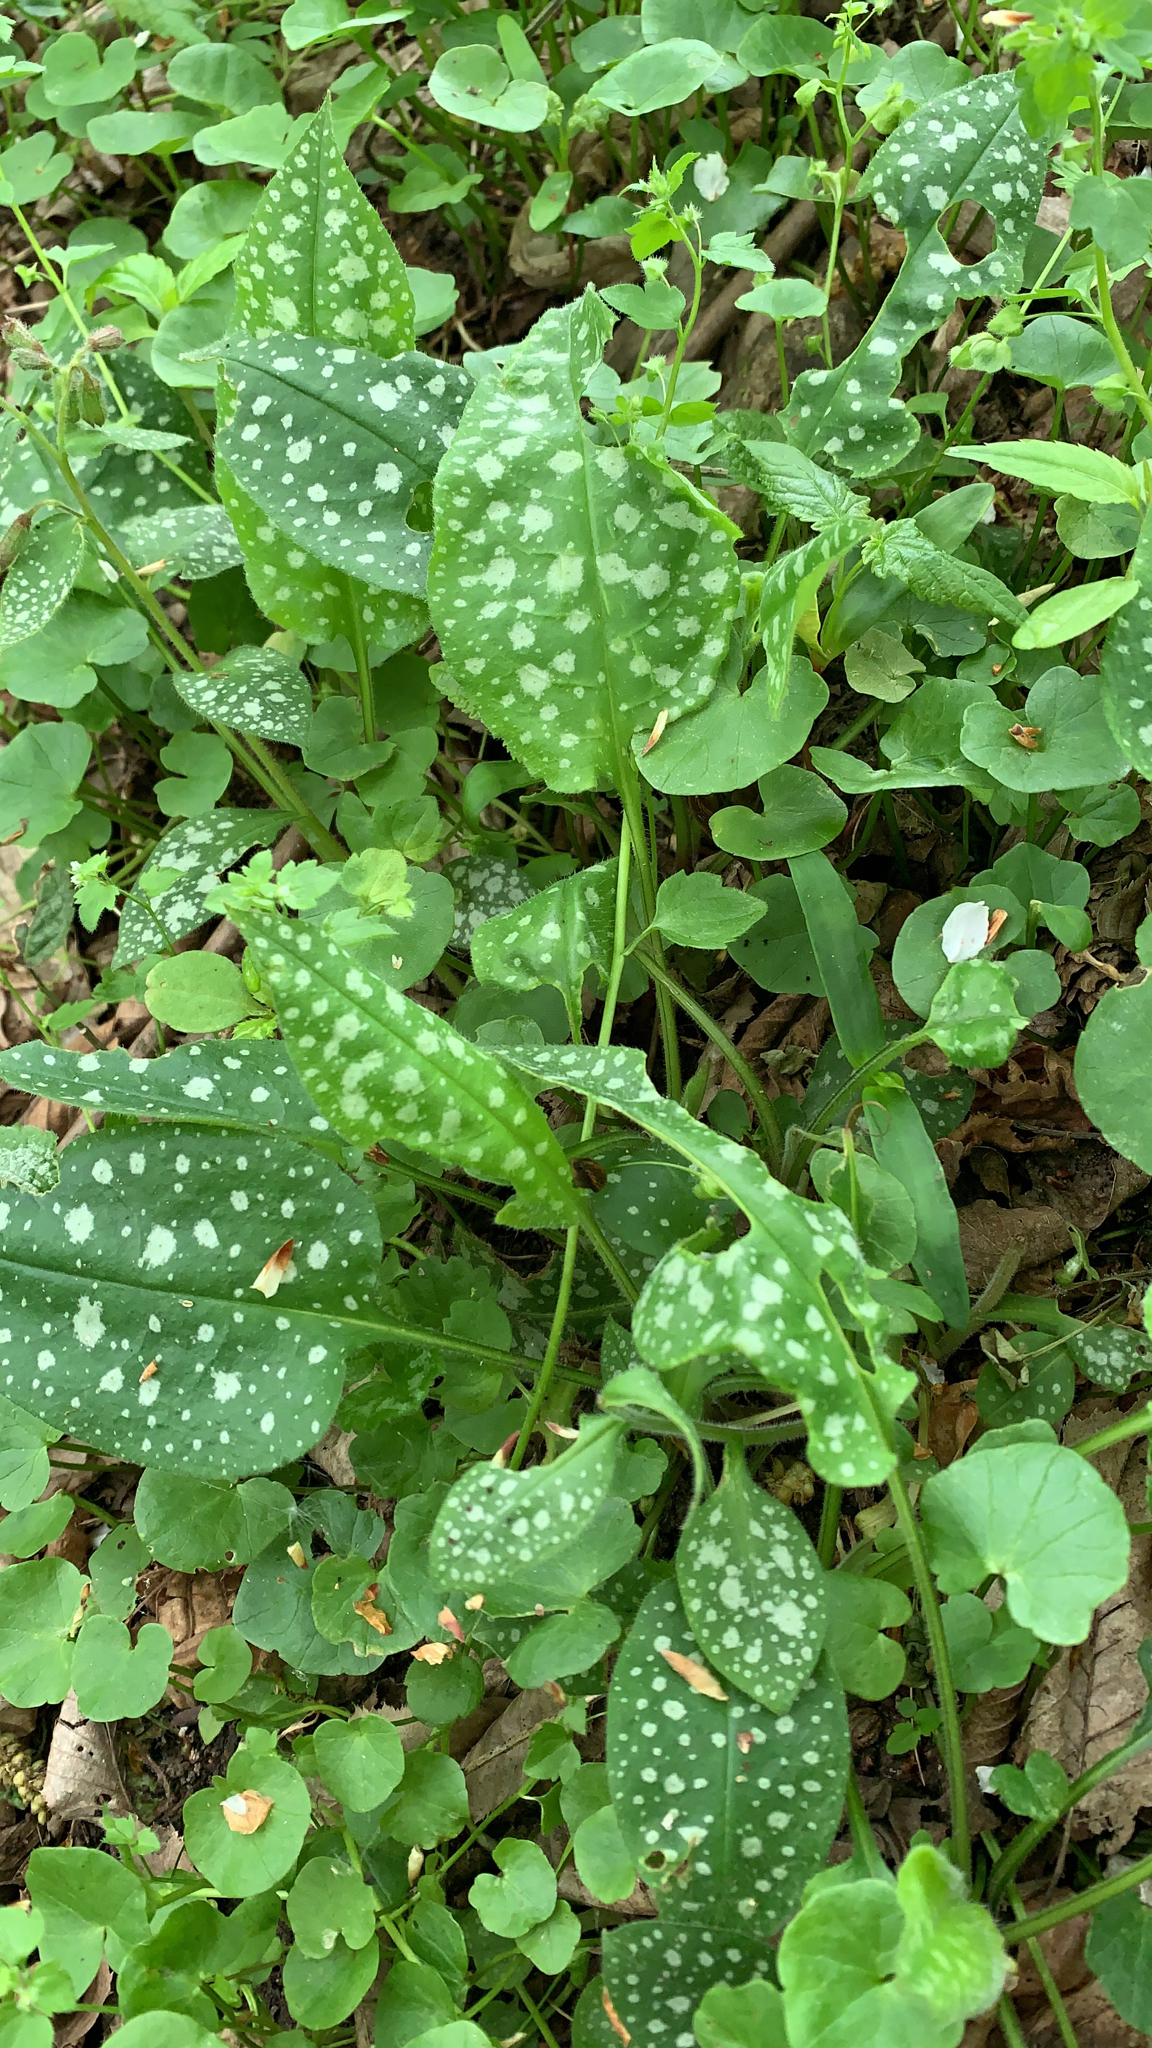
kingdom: Plantae
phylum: Tracheophyta
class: Magnoliopsida
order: Boraginales
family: Boraginaceae
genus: Pulmonaria
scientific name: Pulmonaria officinalis
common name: Lungwort
